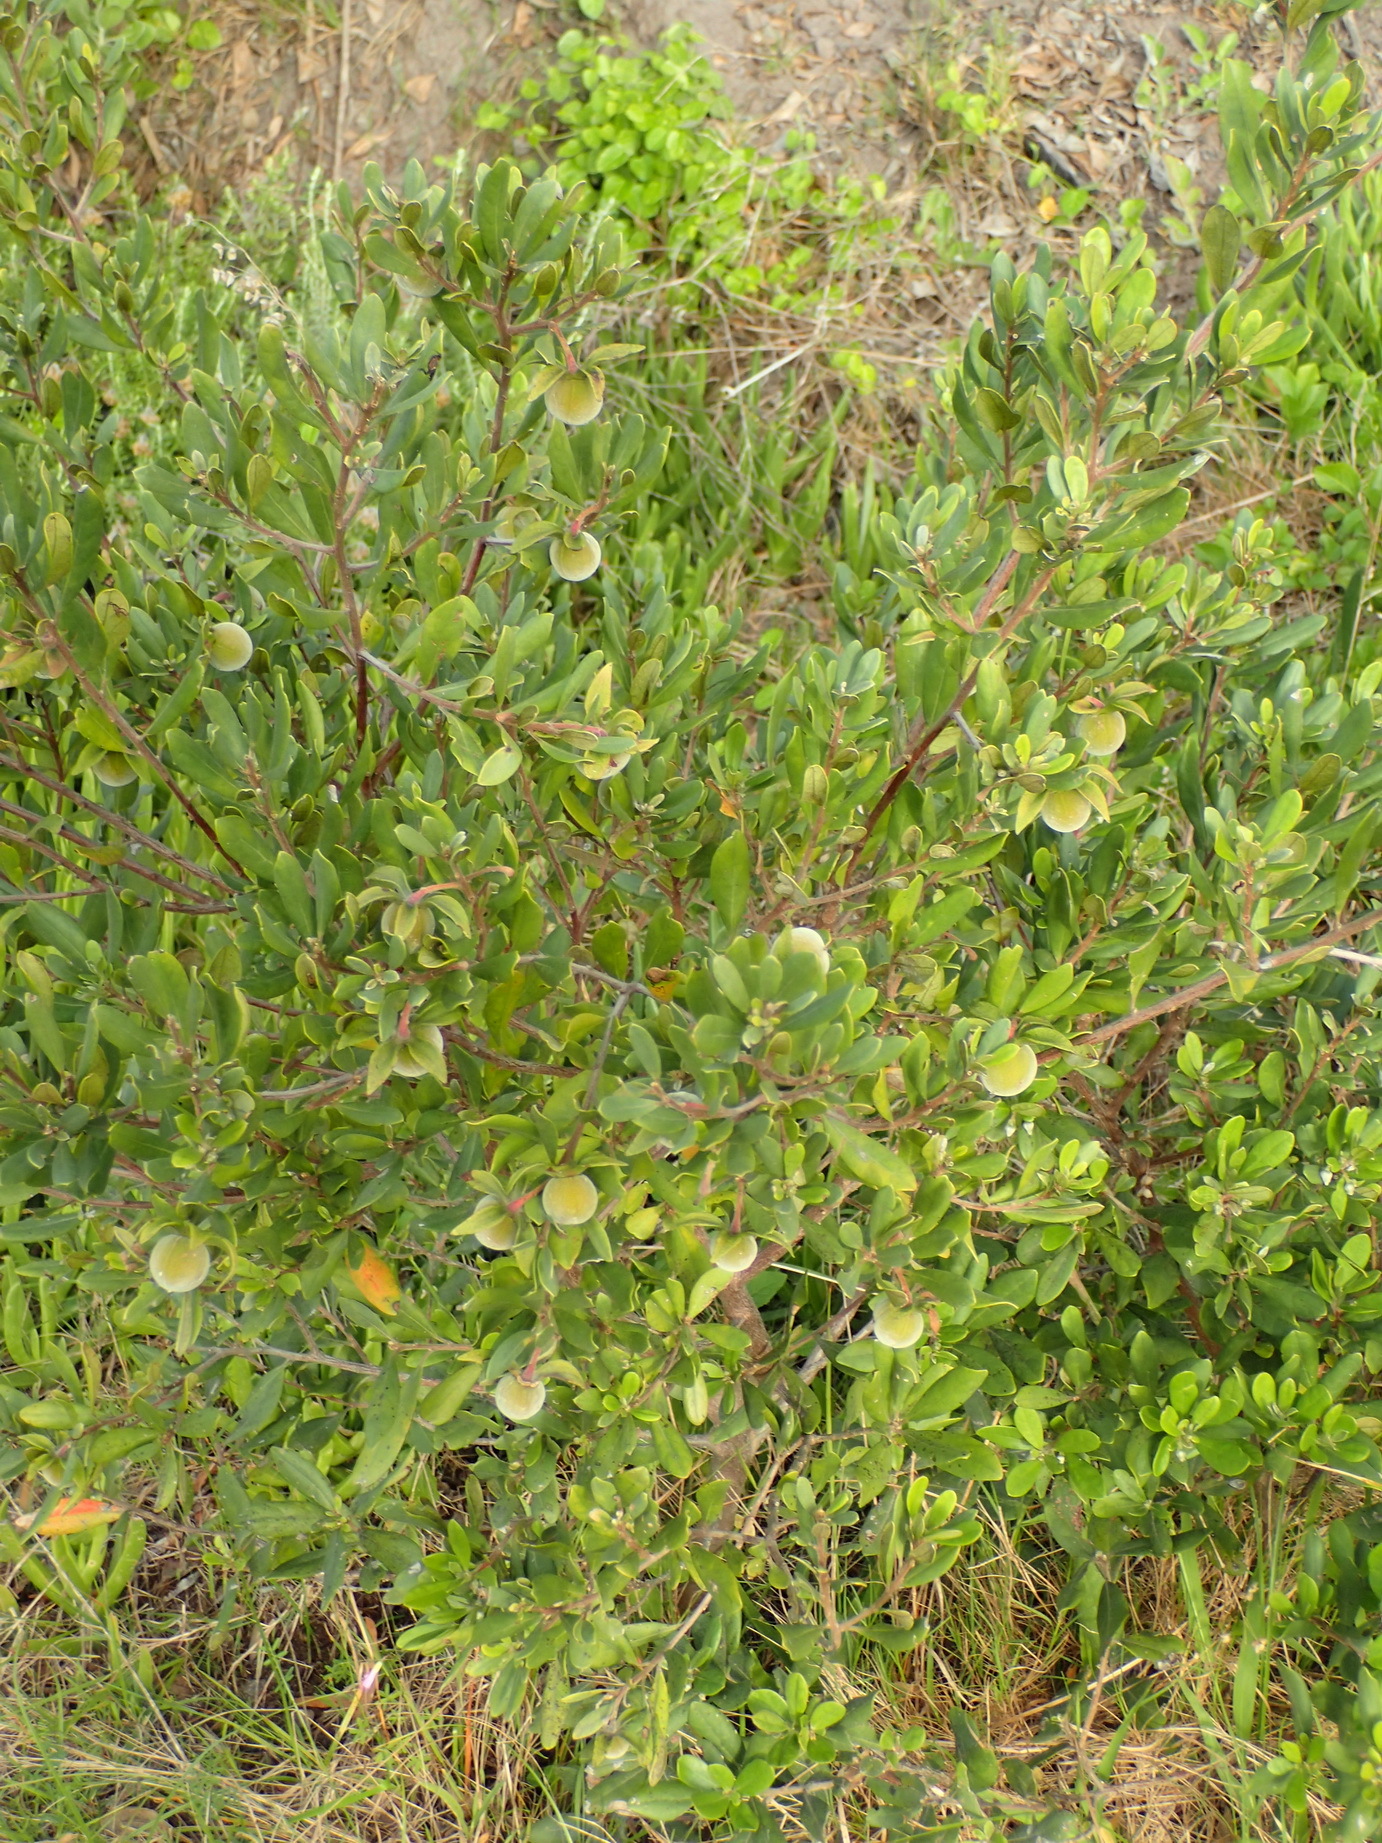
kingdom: Plantae
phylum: Tracheophyta
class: Magnoliopsida
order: Ericales
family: Ebenaceae
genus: Diospyros
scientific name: Diospyros dichrophylla
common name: Common star-apple
